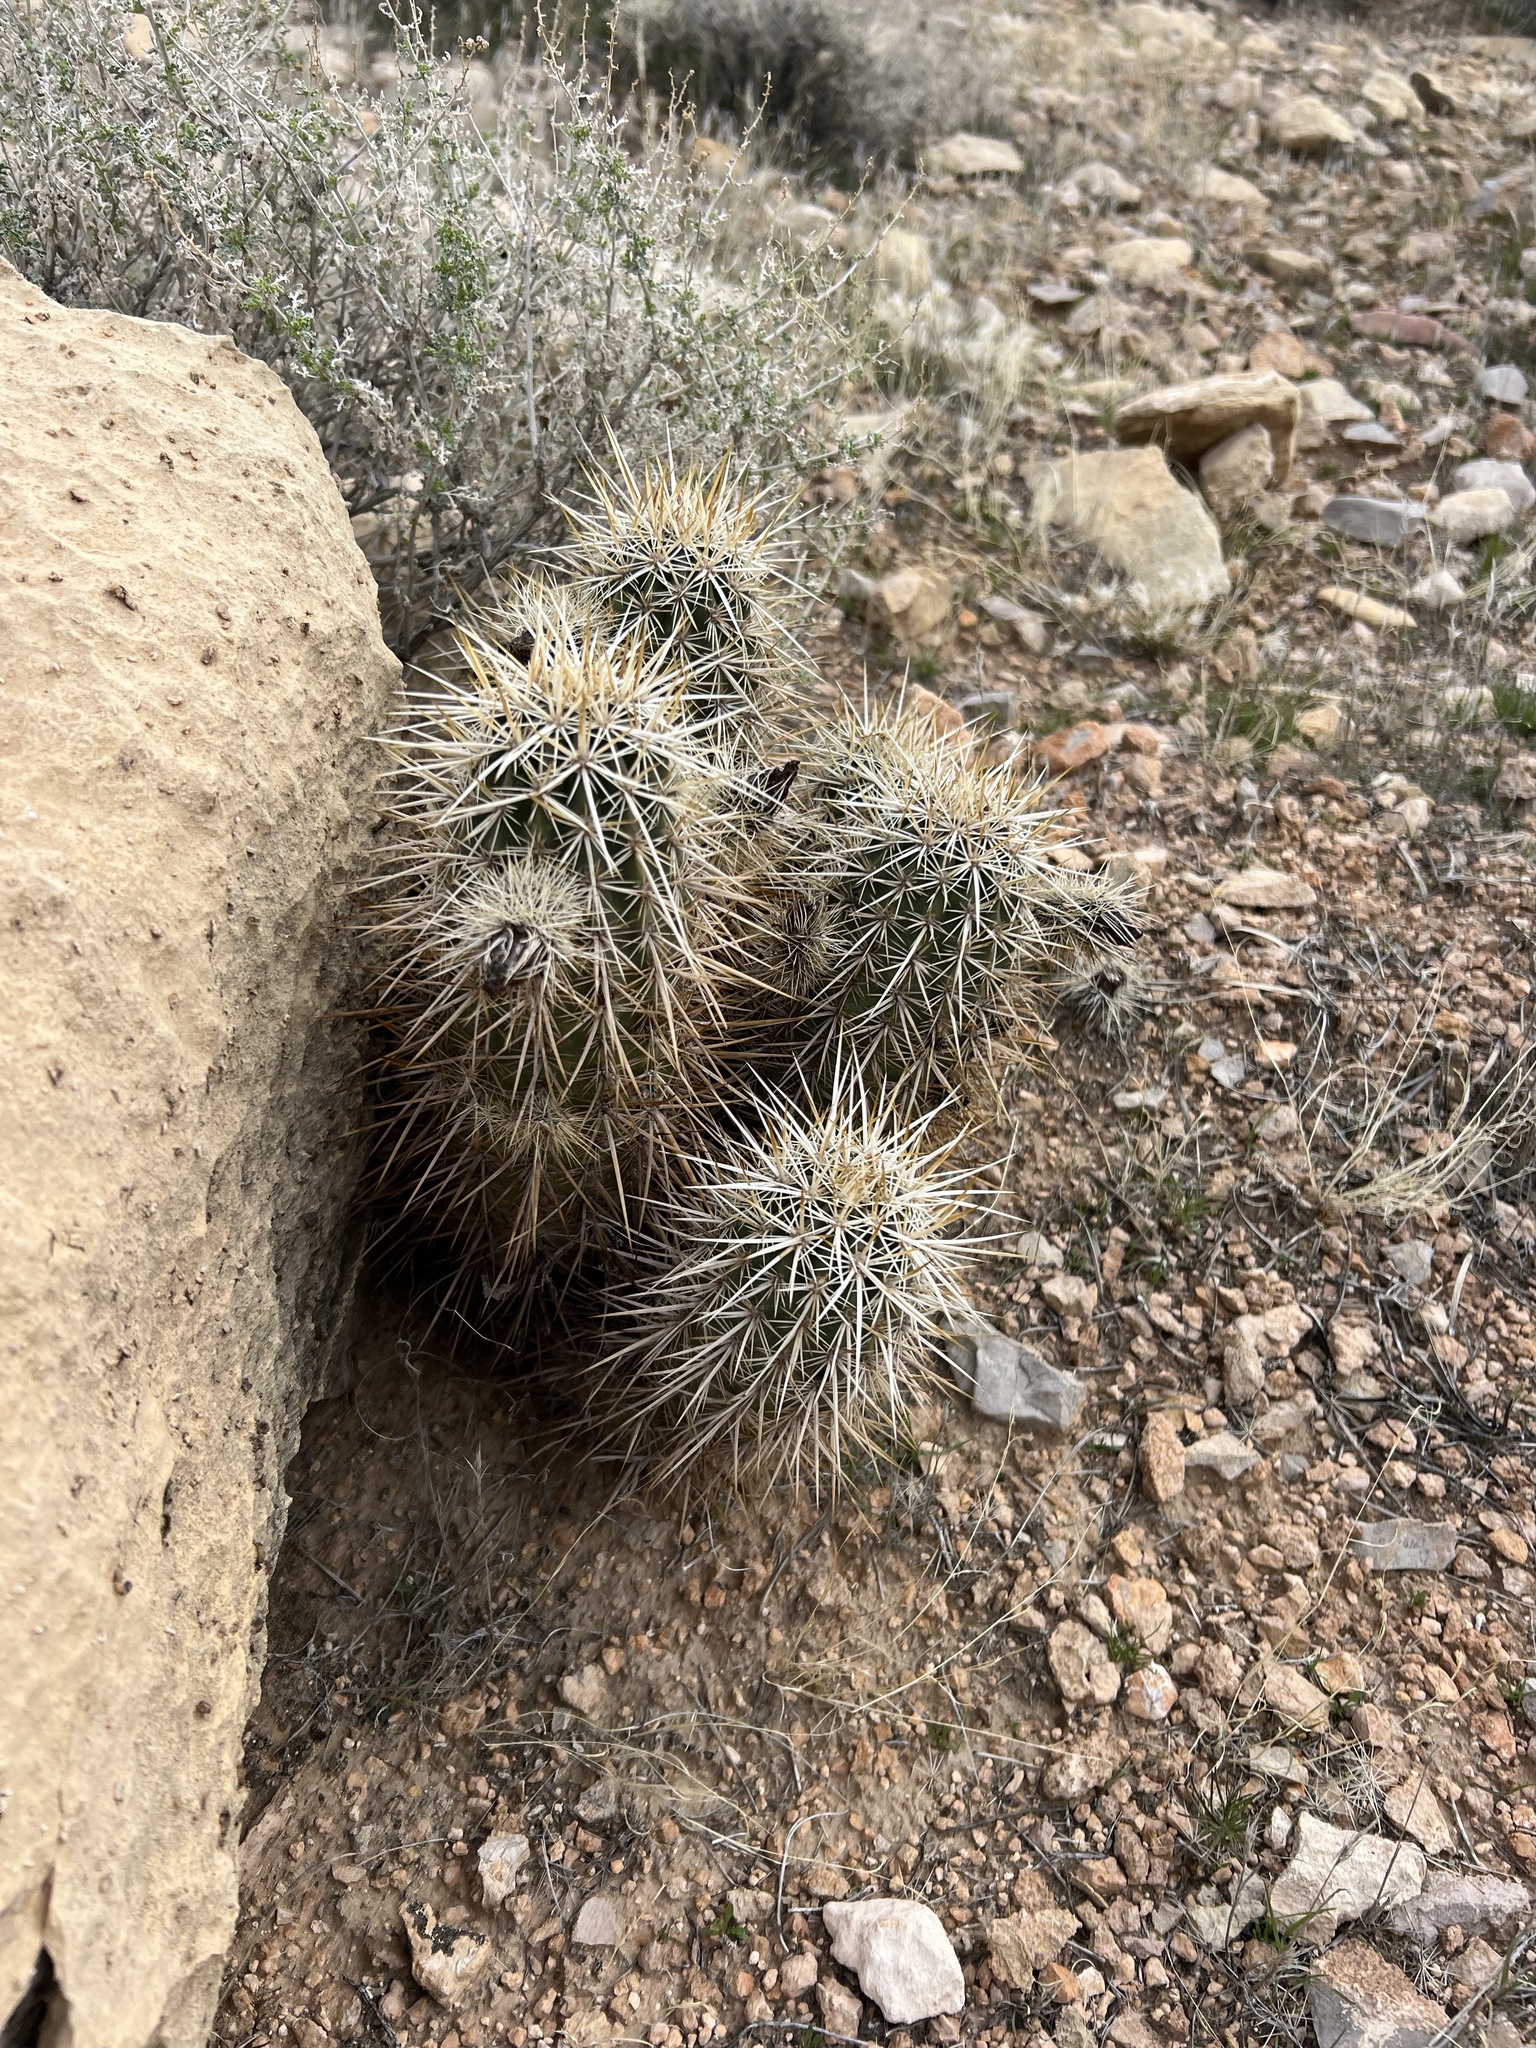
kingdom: Plantae
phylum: Tracheophyta
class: Magnoliopsida
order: Caryophyllales
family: Cactaceae
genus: Echinocereus
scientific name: Echinocereus engelmannii
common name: Engelmann's hedgehog cactus
